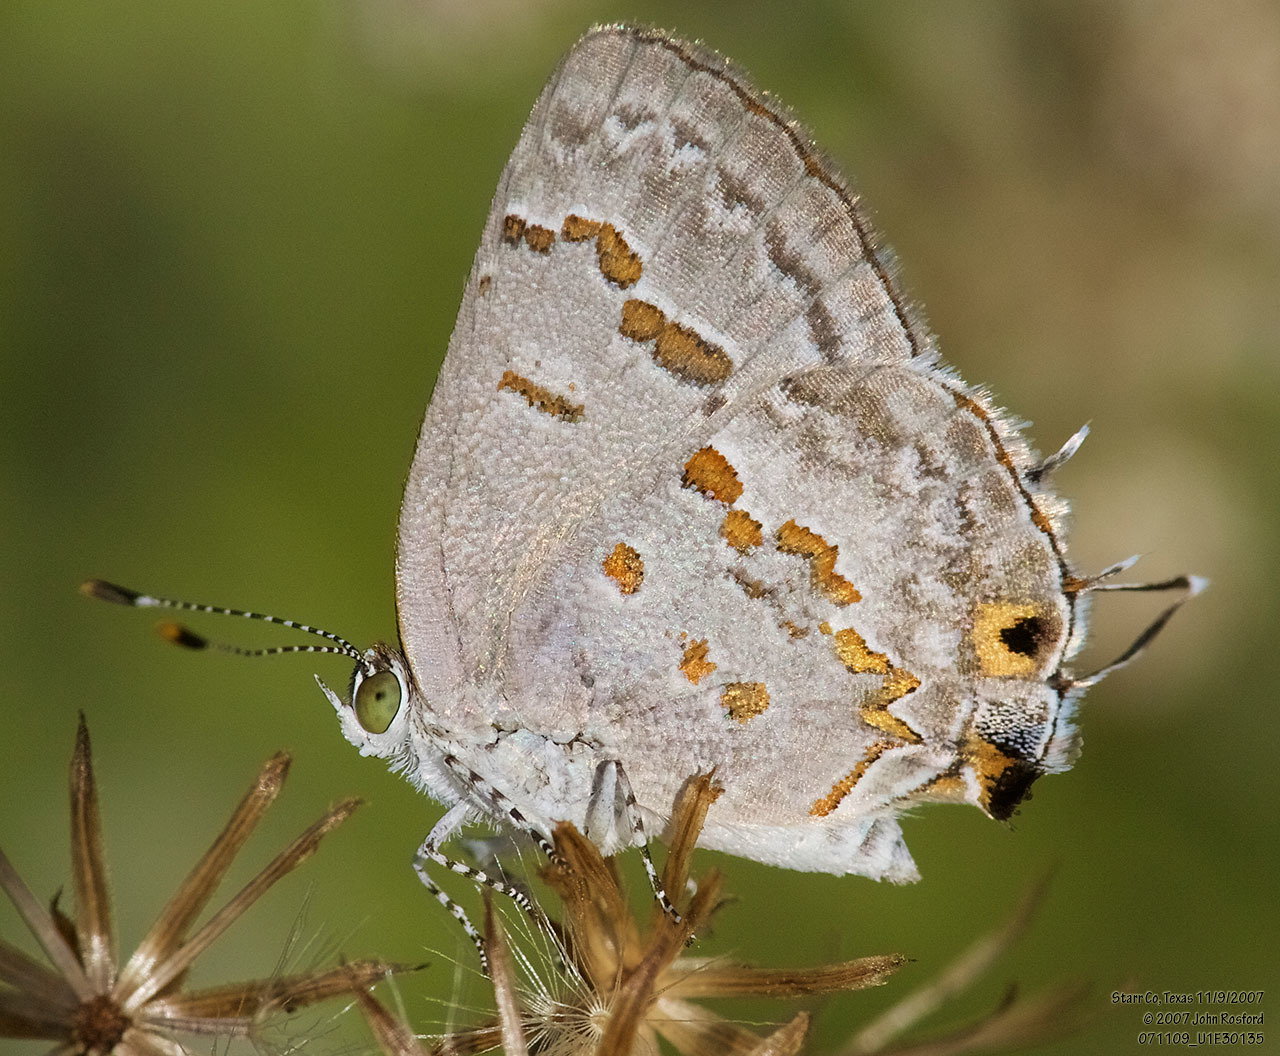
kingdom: Animalia
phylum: Arthropoda
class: Insecta
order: Lepidoptera
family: Lycaenidae
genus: Ministrymon
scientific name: Ministrymon clytie
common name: Clytie ministreak
